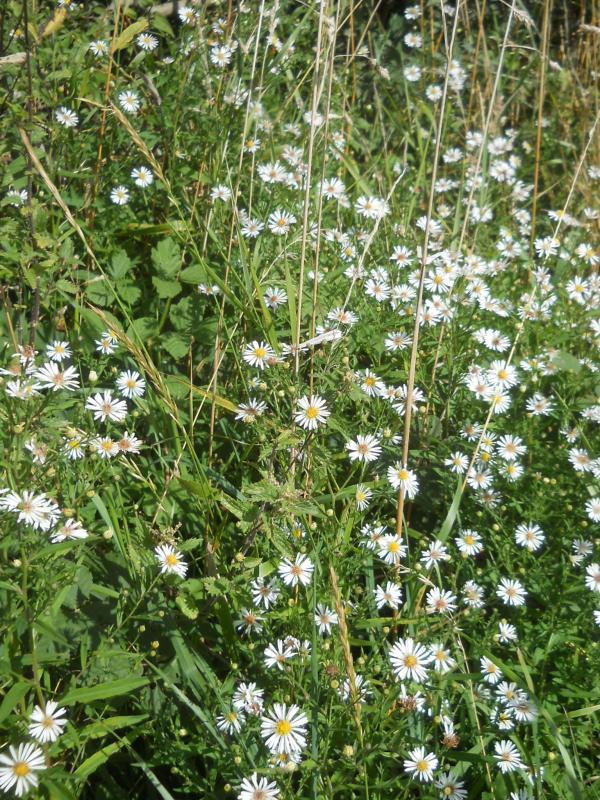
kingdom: Plantae
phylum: Tracheophyta
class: Magnoliopsida
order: Asterales
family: Asteraceae
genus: Erigeron
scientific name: Erigeron annuus
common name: Tall fleabane
